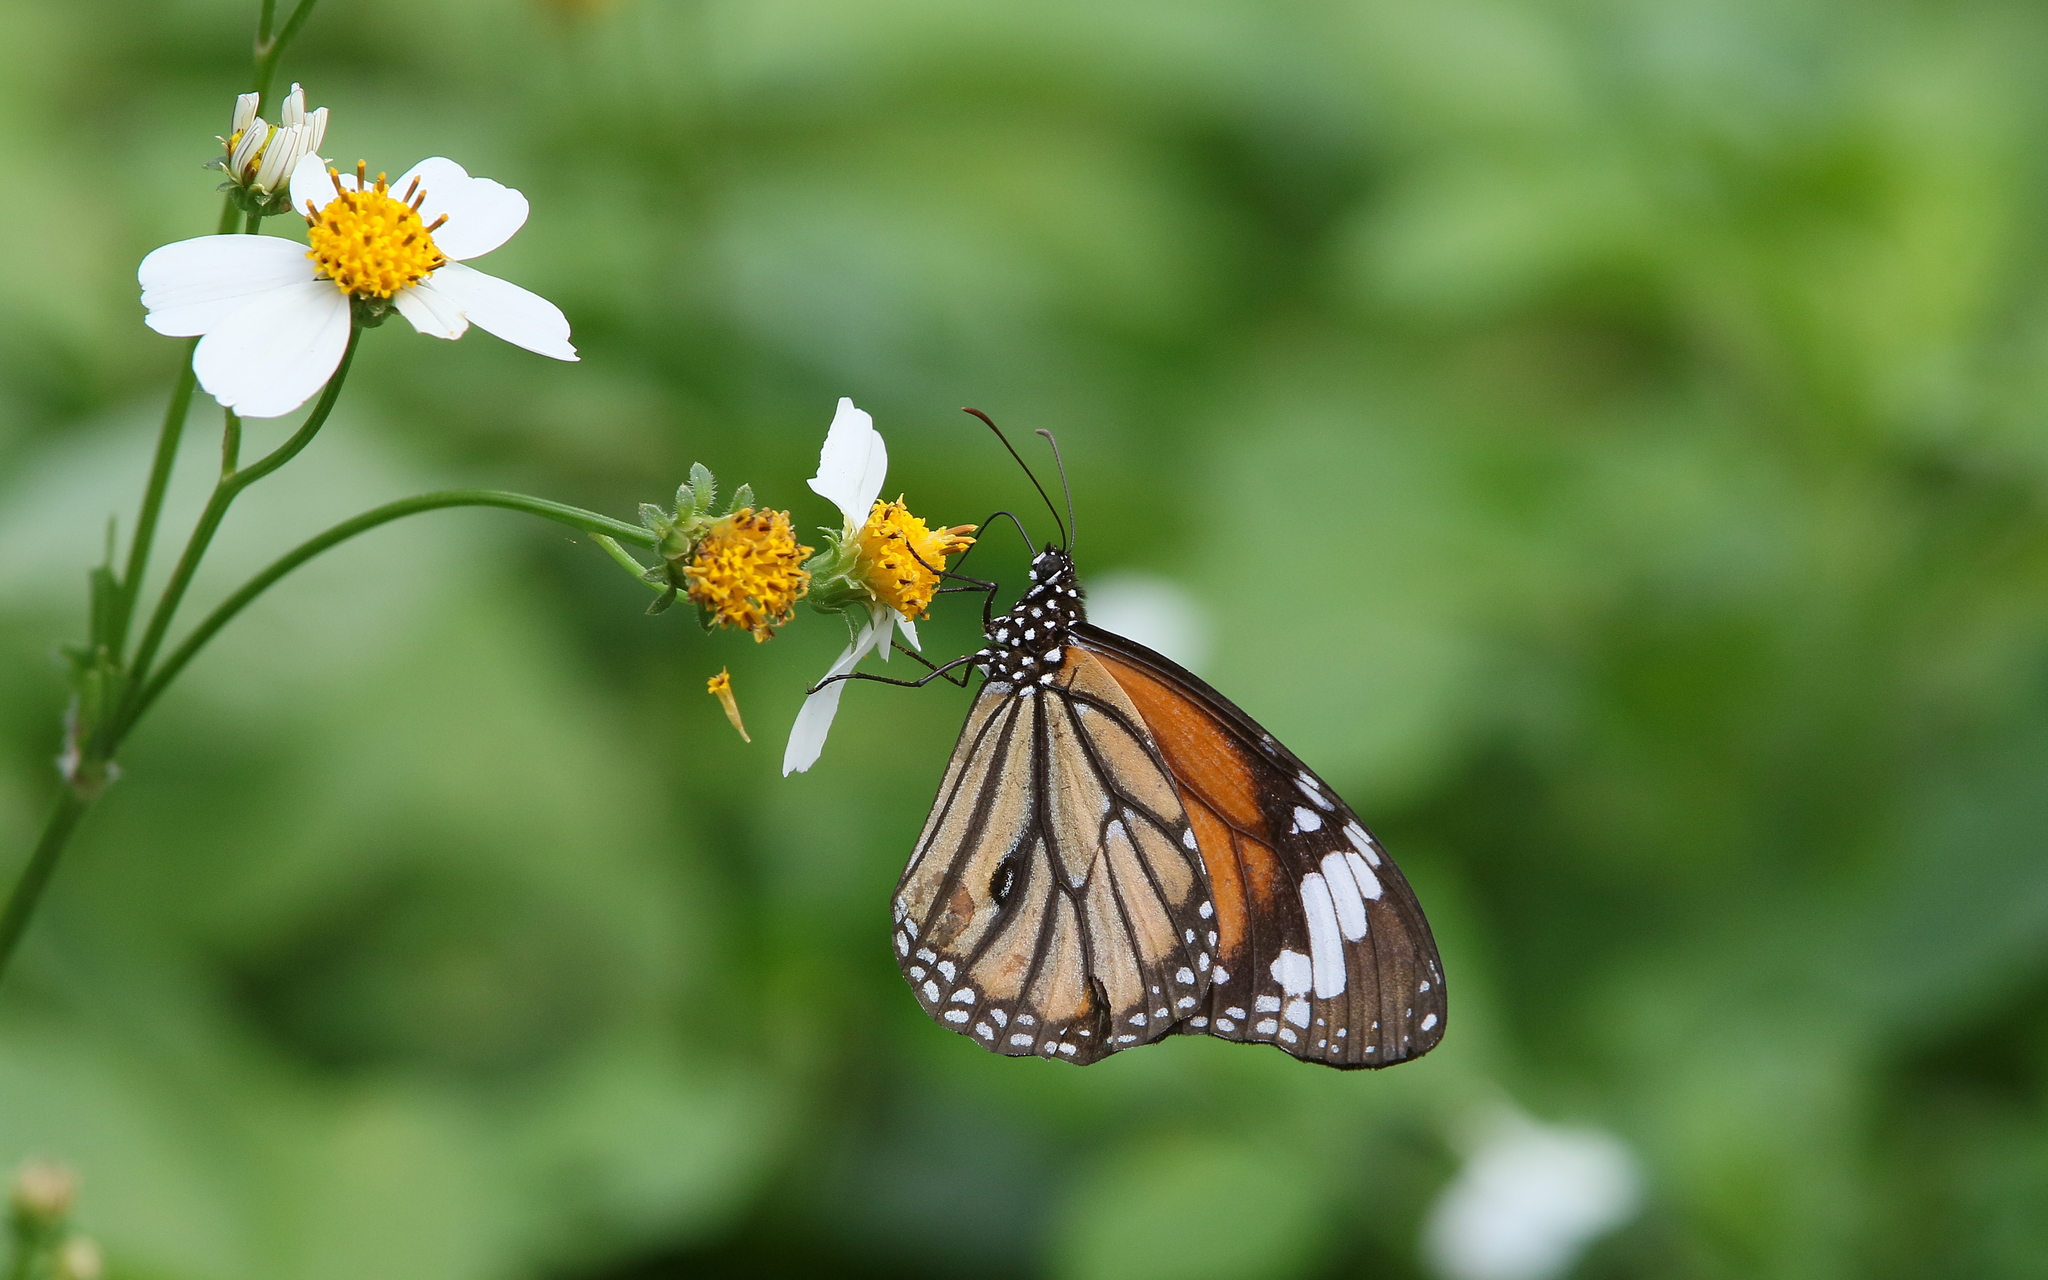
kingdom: Animalia
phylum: Arthropoda
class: Insecta
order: Lepidoptera
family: Nymphalidae
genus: Danaus
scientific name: Danaus genutia
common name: Common tiger butterfly
